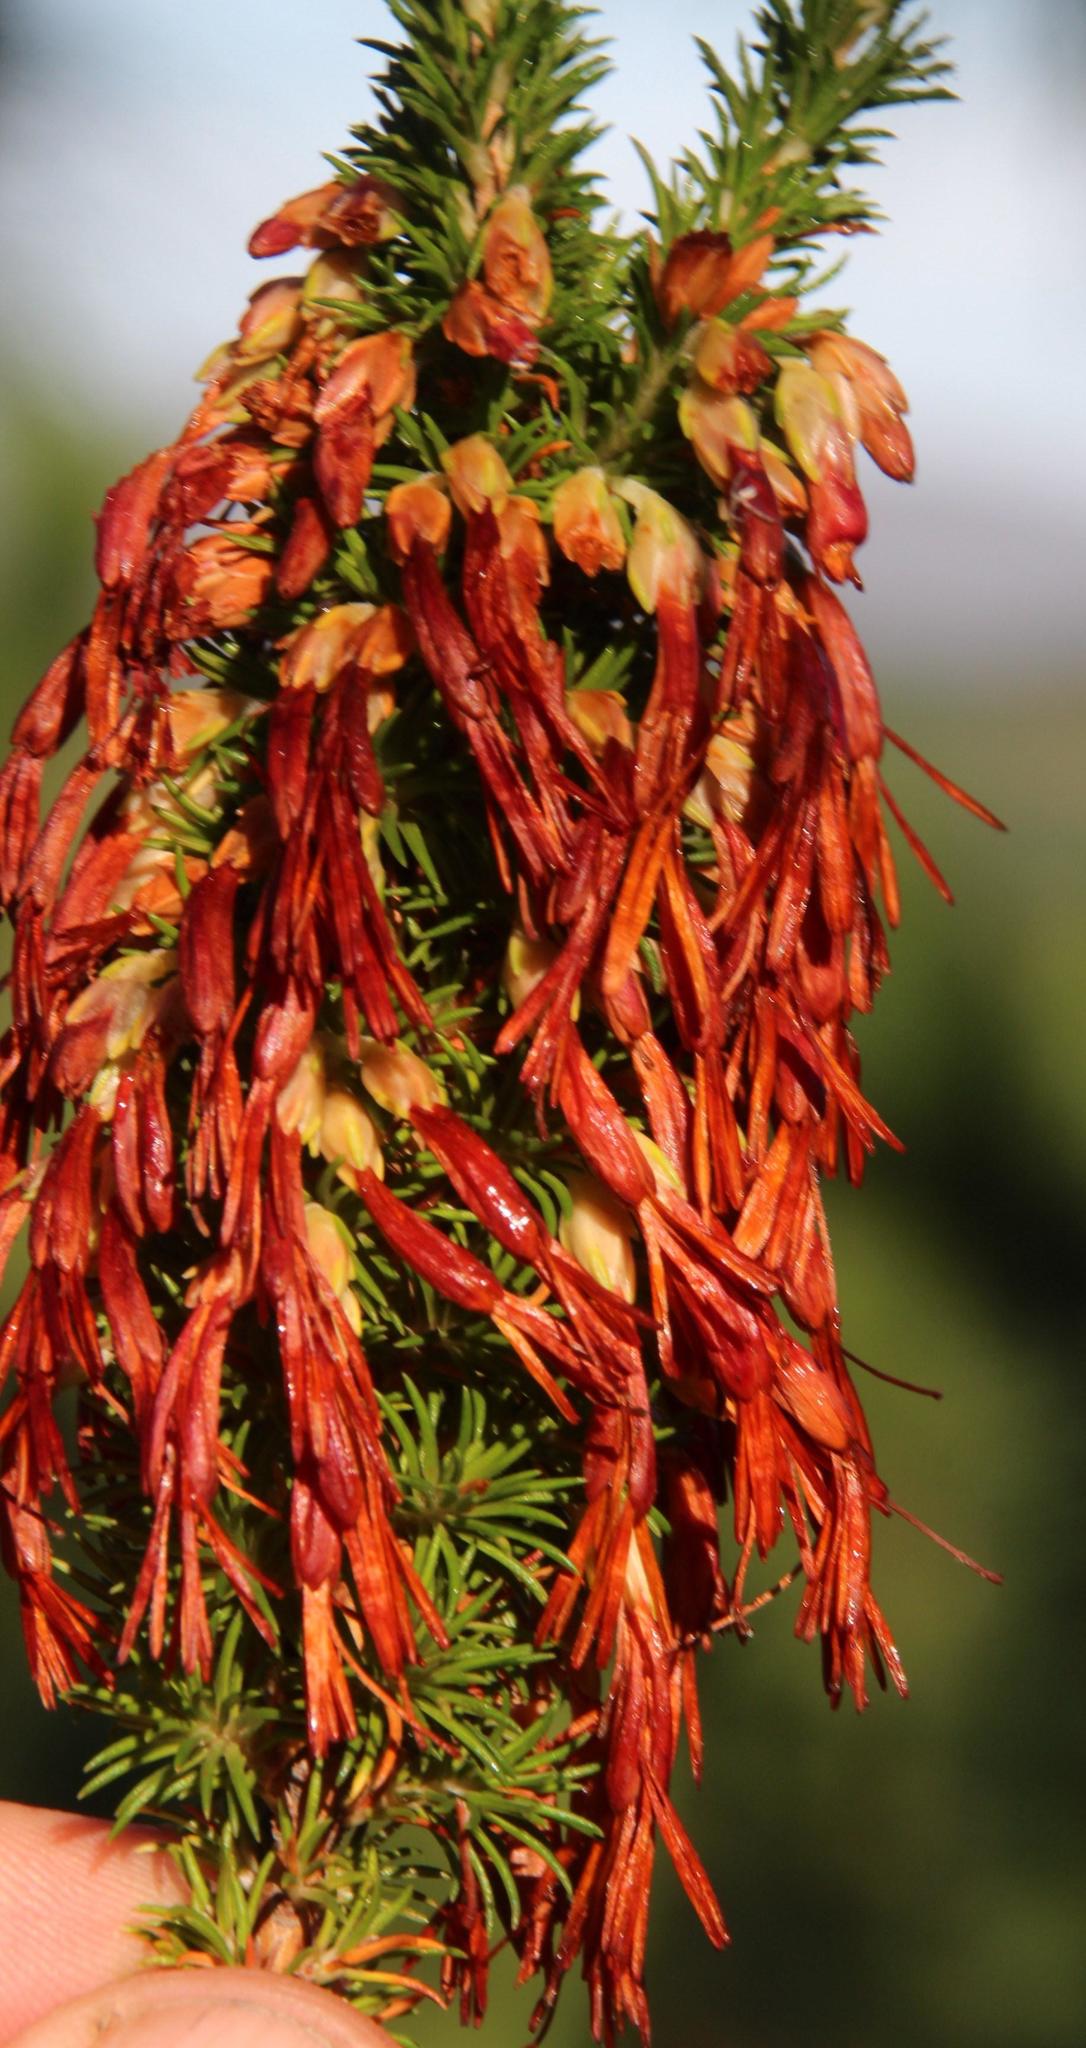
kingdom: Plantae
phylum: Tracheophyta
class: Magnoliopsida
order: Ericales
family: Ericaceae
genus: Erica
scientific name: Erica coccinea
